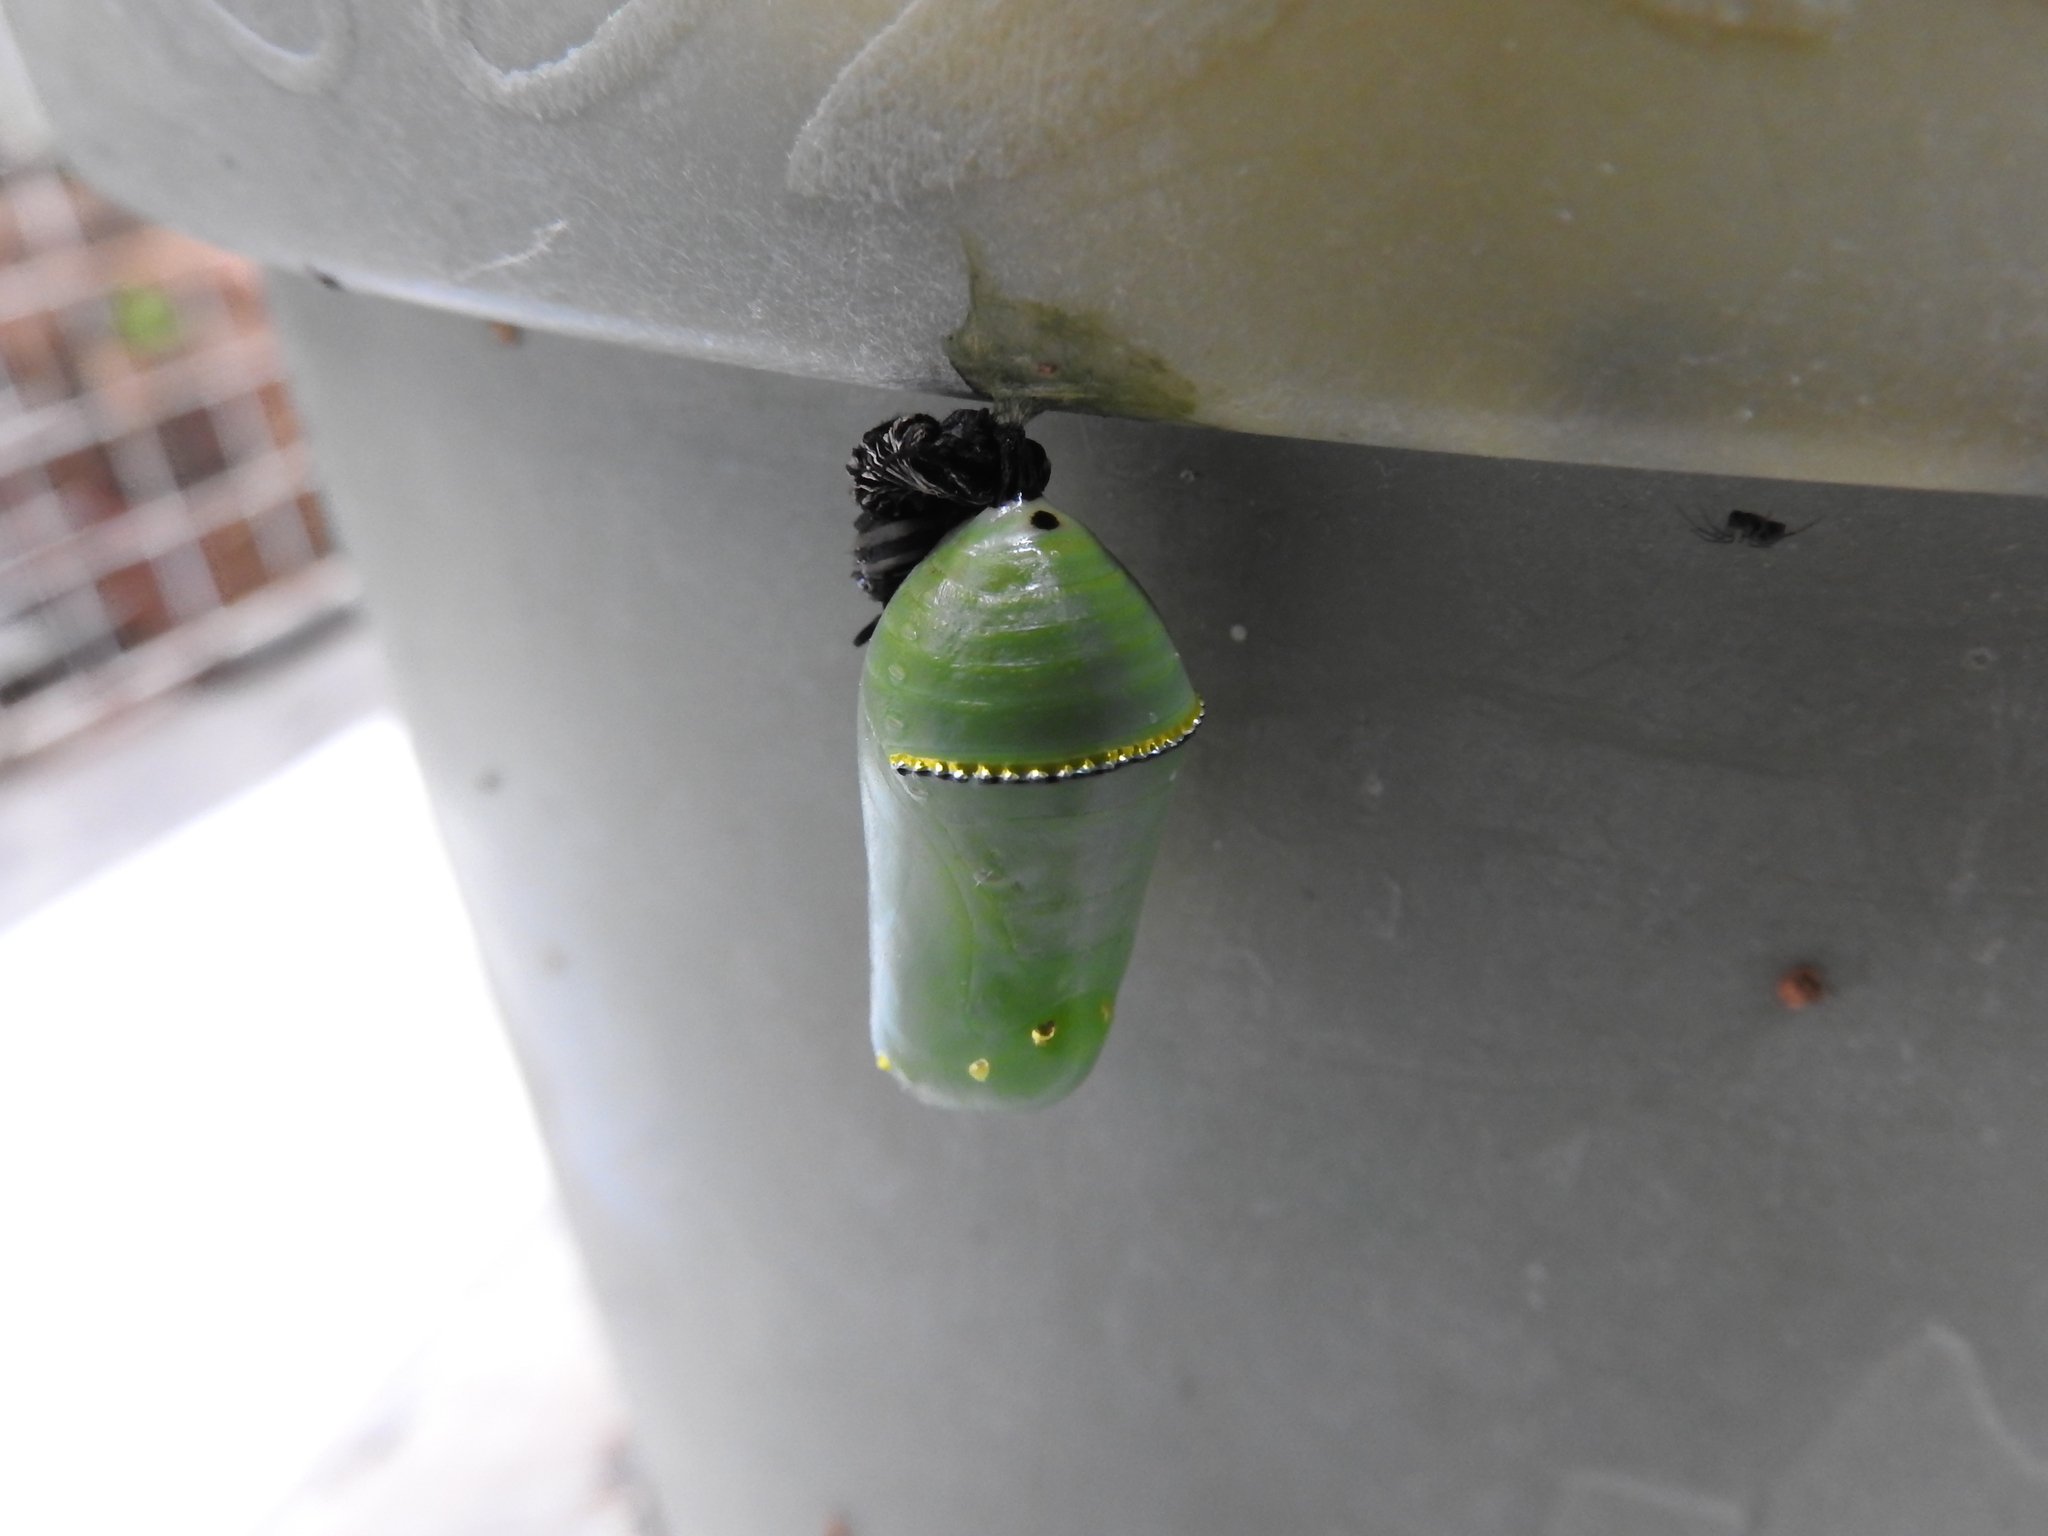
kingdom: Animalia
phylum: Arthropoda
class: Insecta
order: Lepidoptera
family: Nymphalidae
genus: Danaus
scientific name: Danaus plexippus
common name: Monarch
